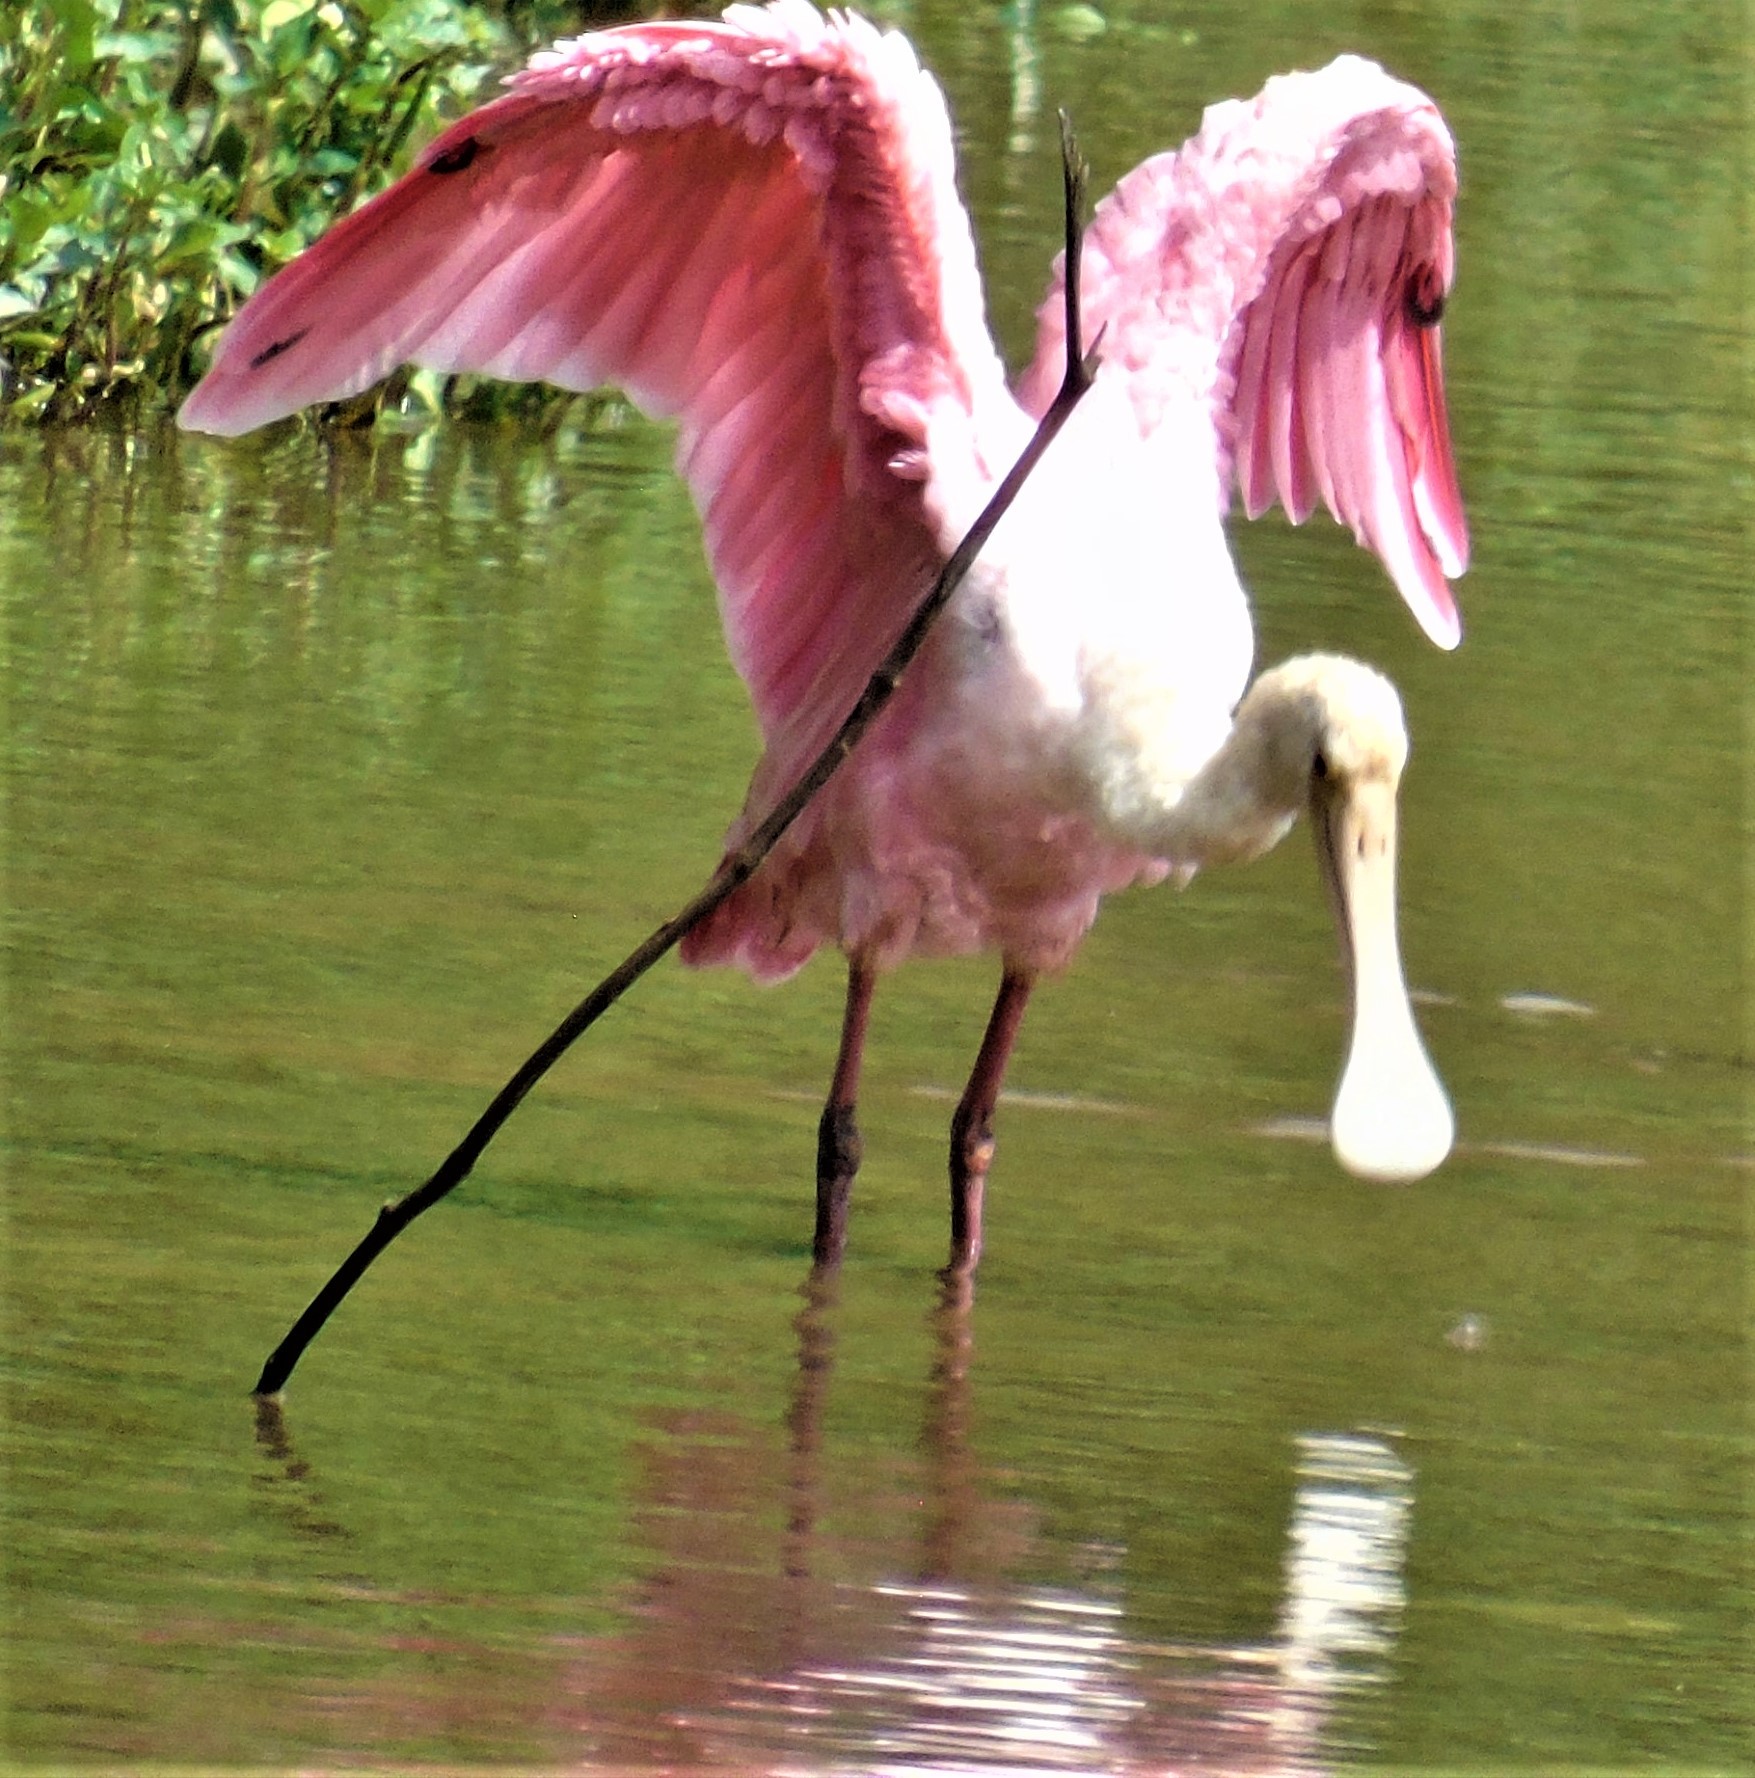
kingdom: Animalia
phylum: Chordata
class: Aves
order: Pelecaniformes
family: Threskiornithidae
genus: Platalea
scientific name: Platalea ajaja
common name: Roseate spoonbill
